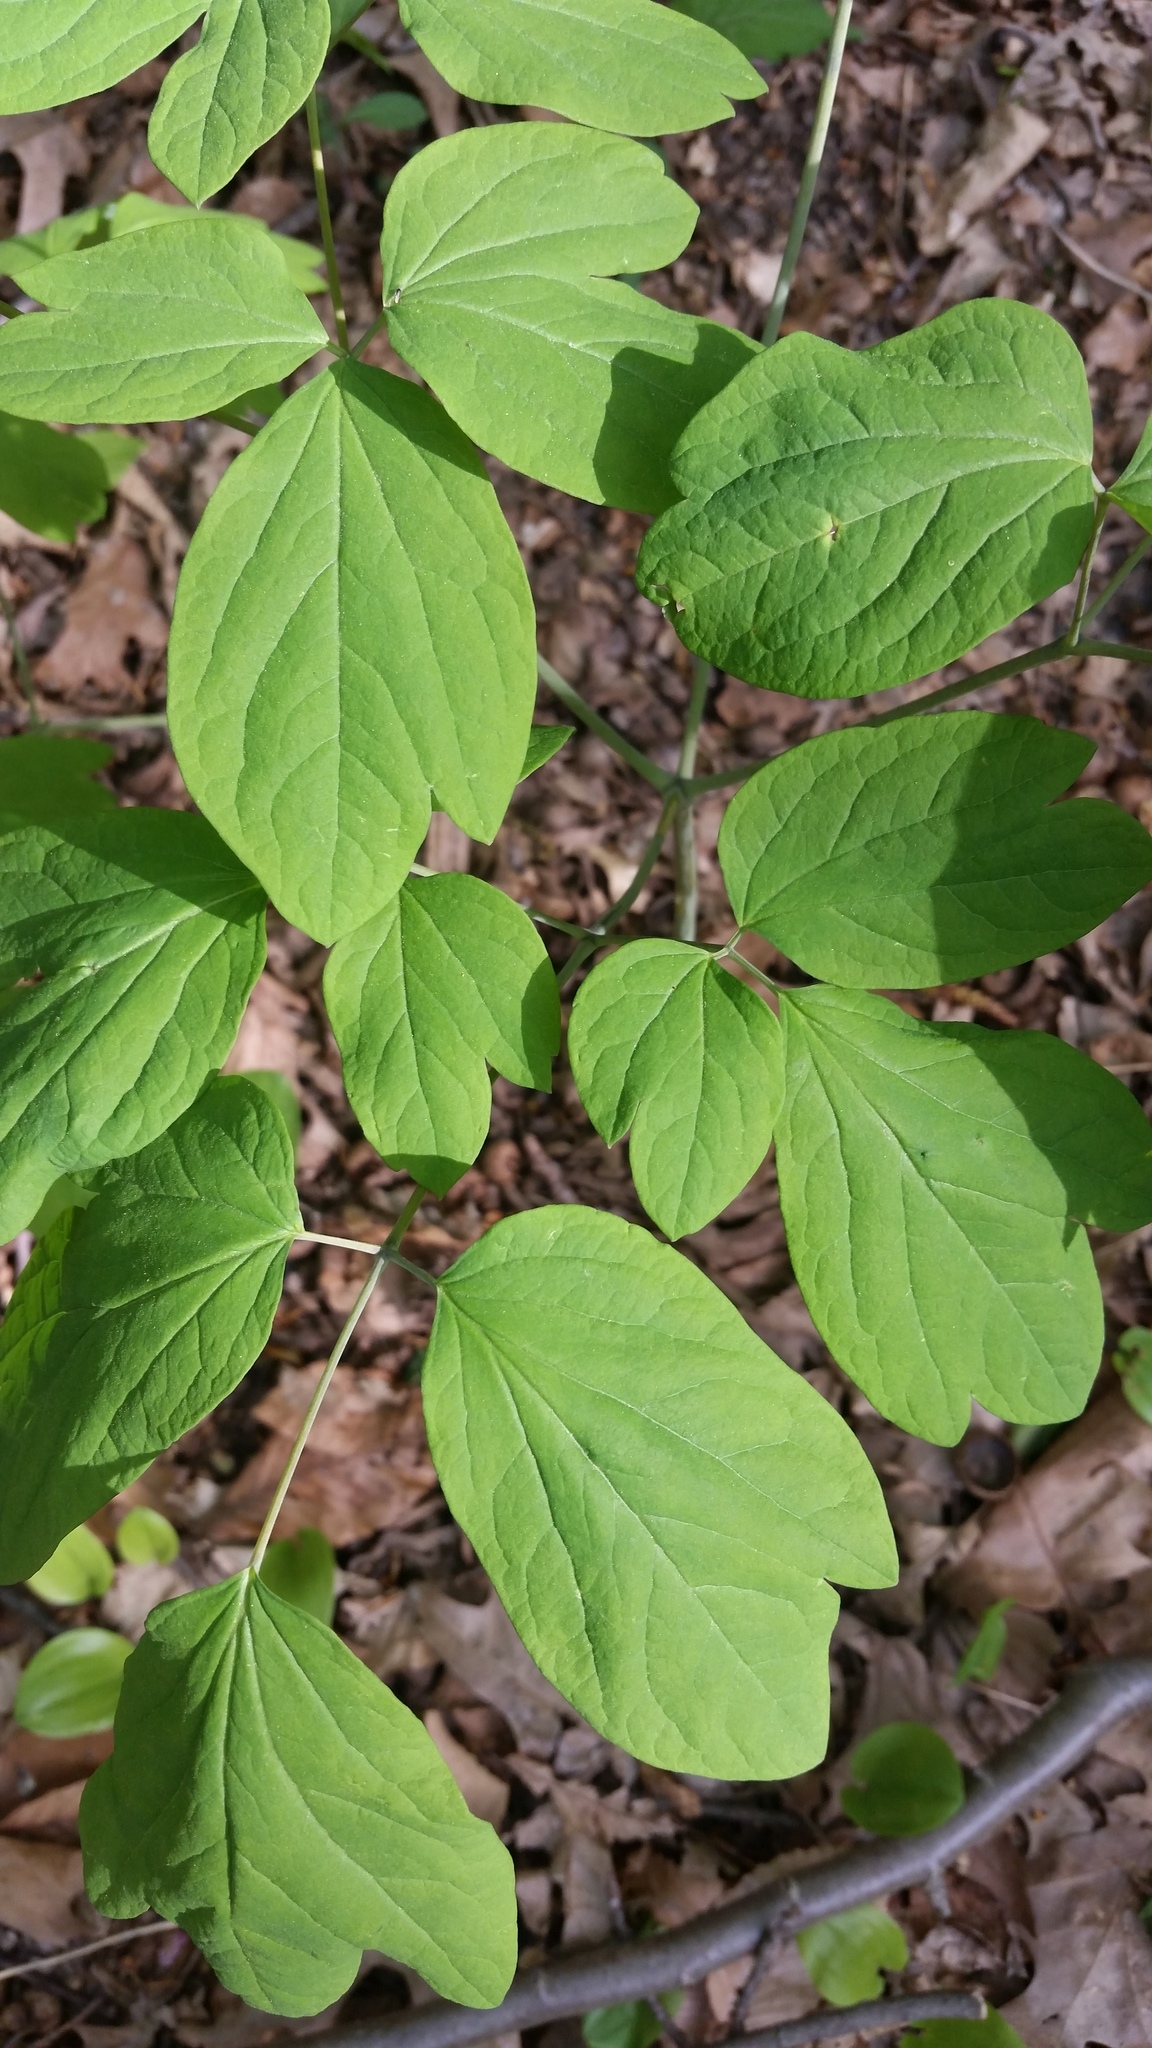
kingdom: Plantae
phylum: Tracheophyta
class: Magnoliopsida
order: Ranunculales
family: Berberidaceae
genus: Caulophyllum
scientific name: Caulophyllum giganteum
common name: Blue cohosh
